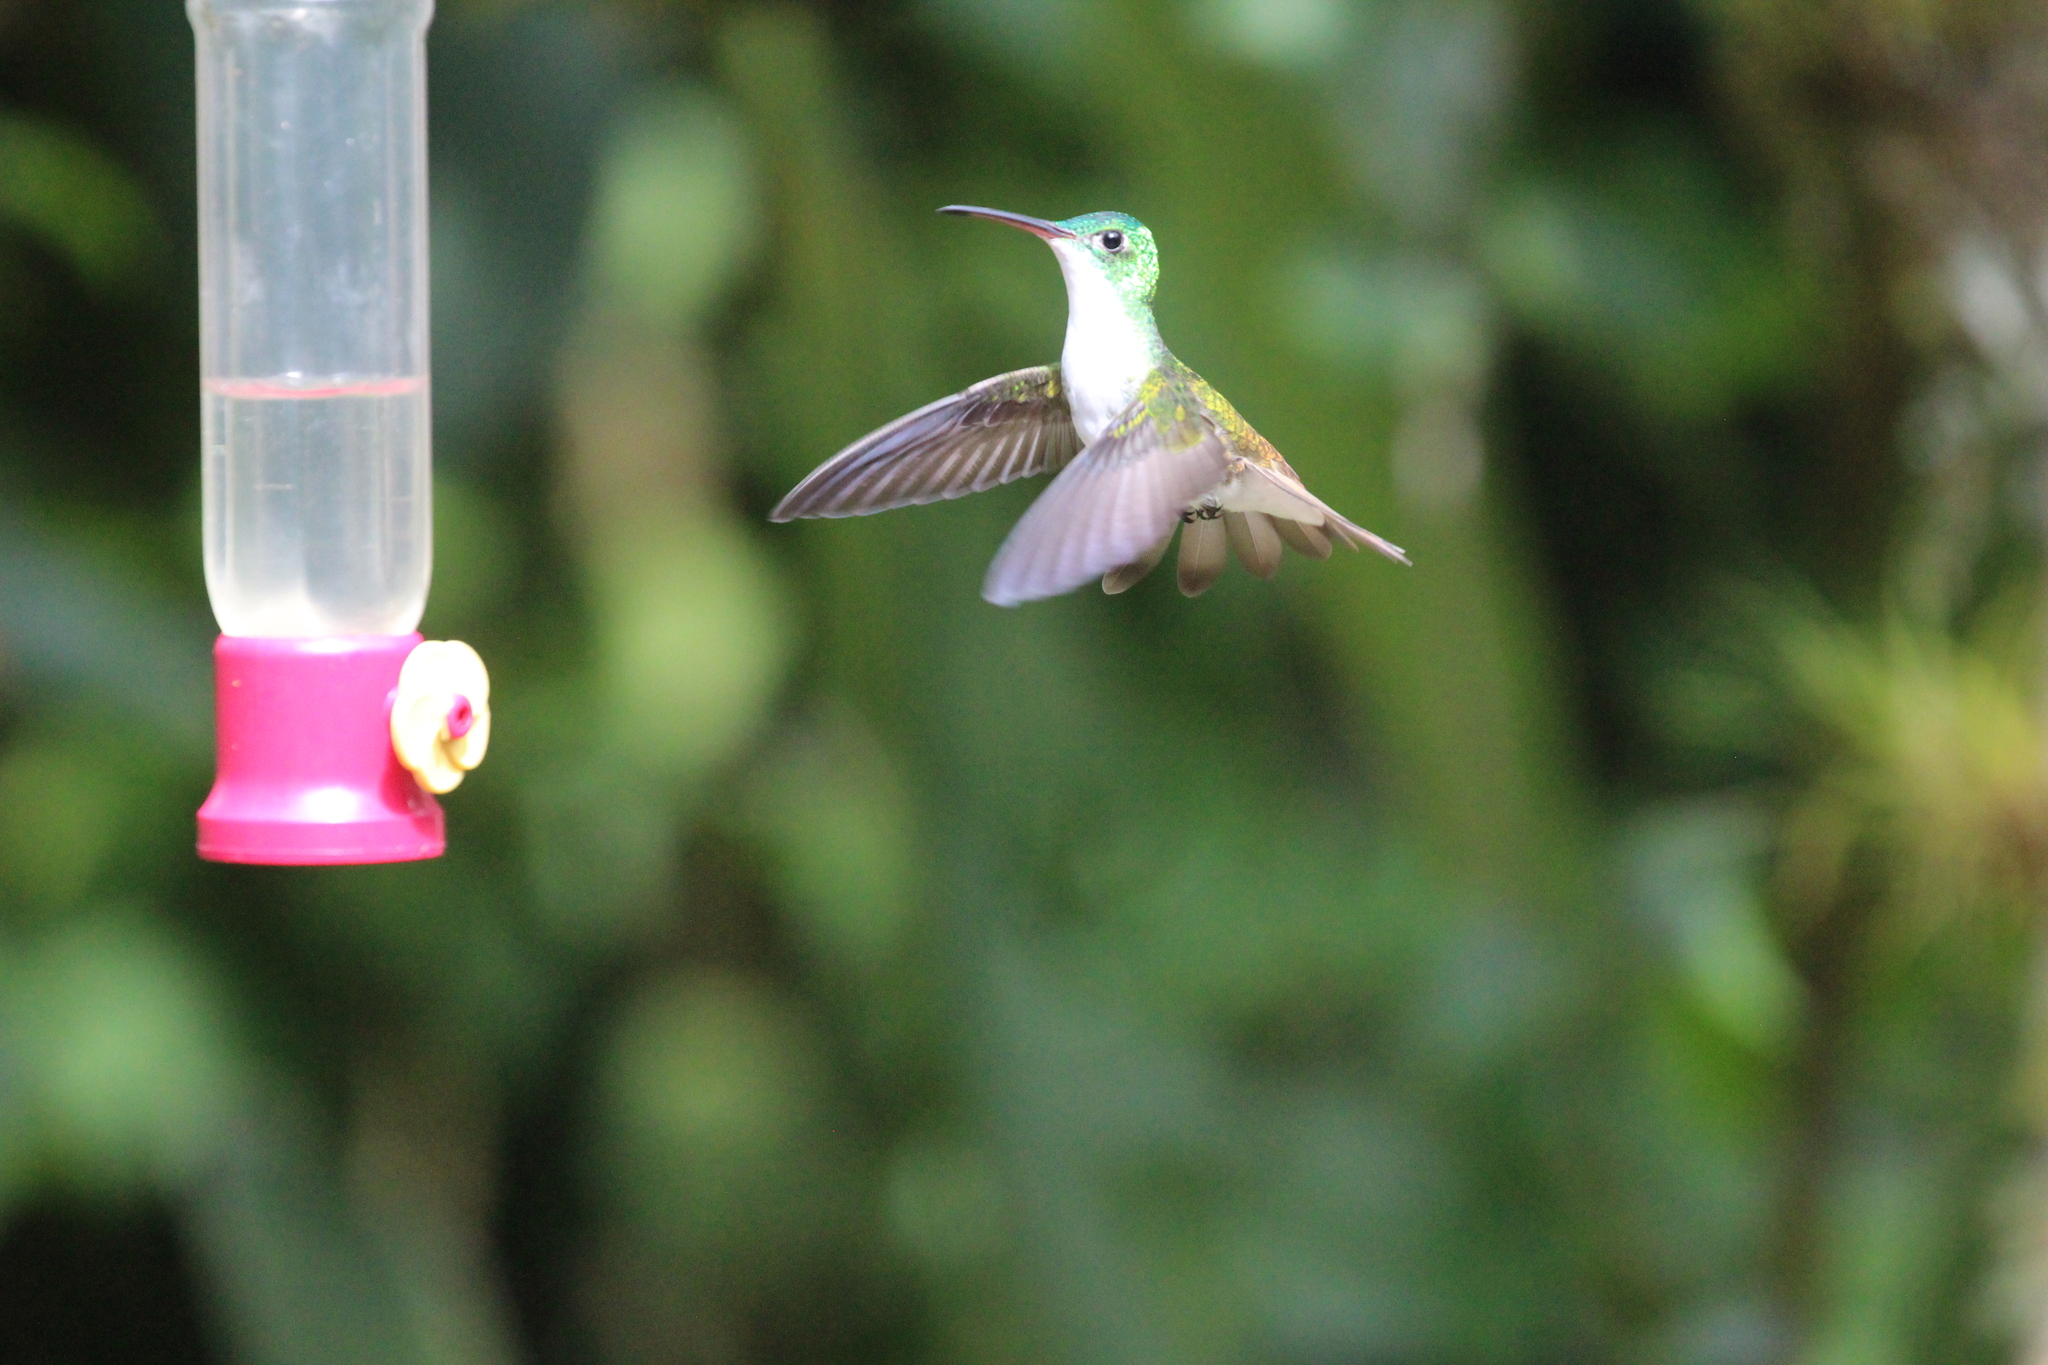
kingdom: Animalia
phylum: Chordata
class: Aves
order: Apodiformes
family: Trochilidae
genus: Uranomitra
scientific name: Uranomitra franciae
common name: Andean emerald
